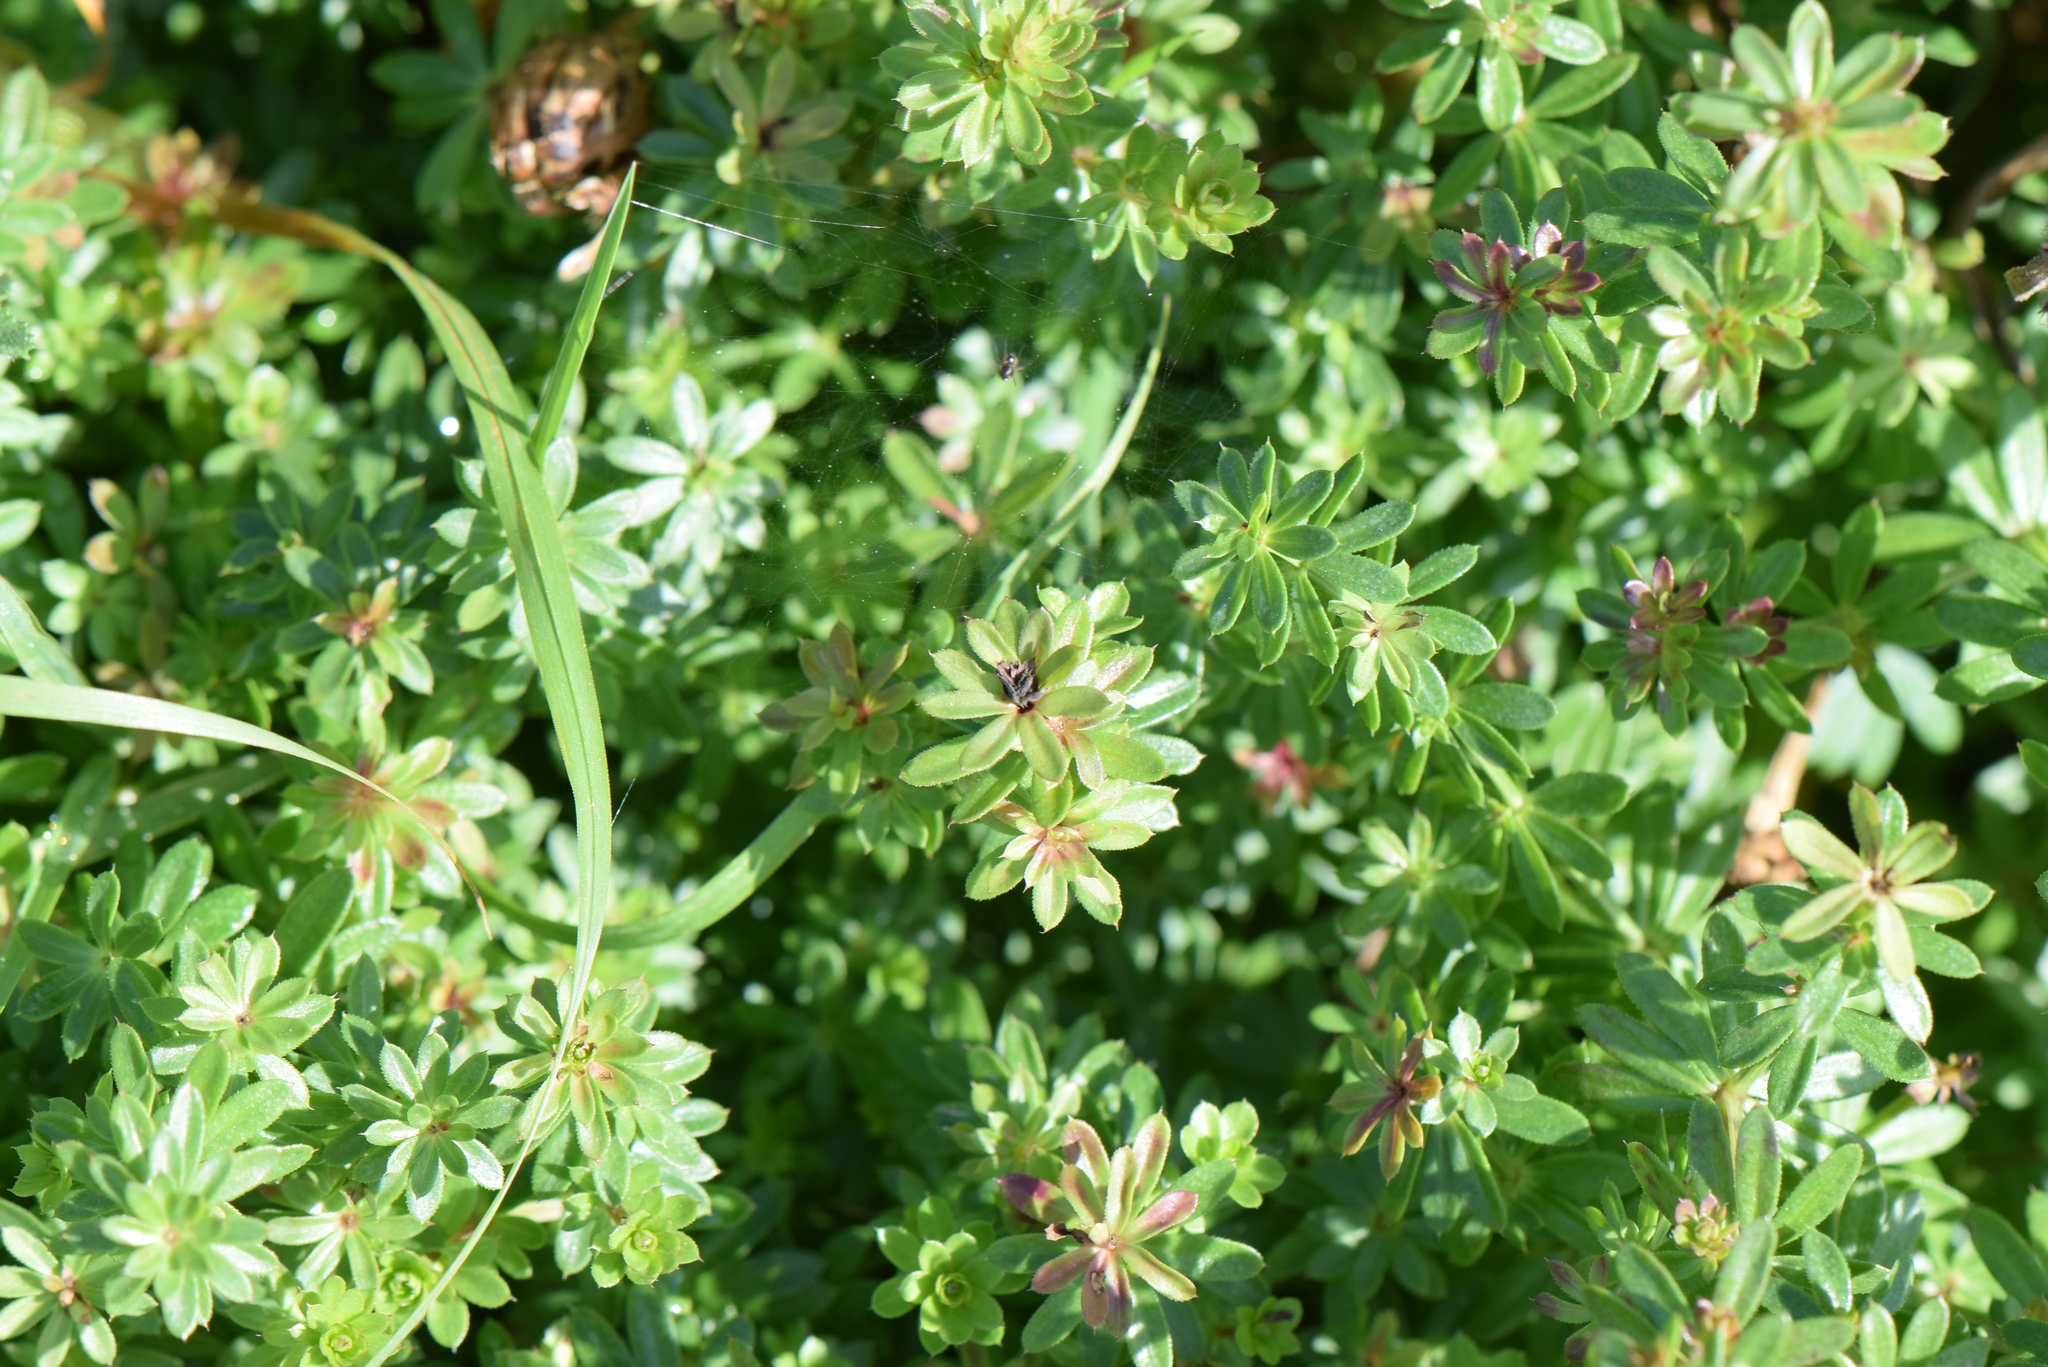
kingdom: Plantae
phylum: Tracheophyta
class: Magnoliopsida
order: Gentianales
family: Rubiaceae
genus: Galium
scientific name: Galium album
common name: White bedstraw
